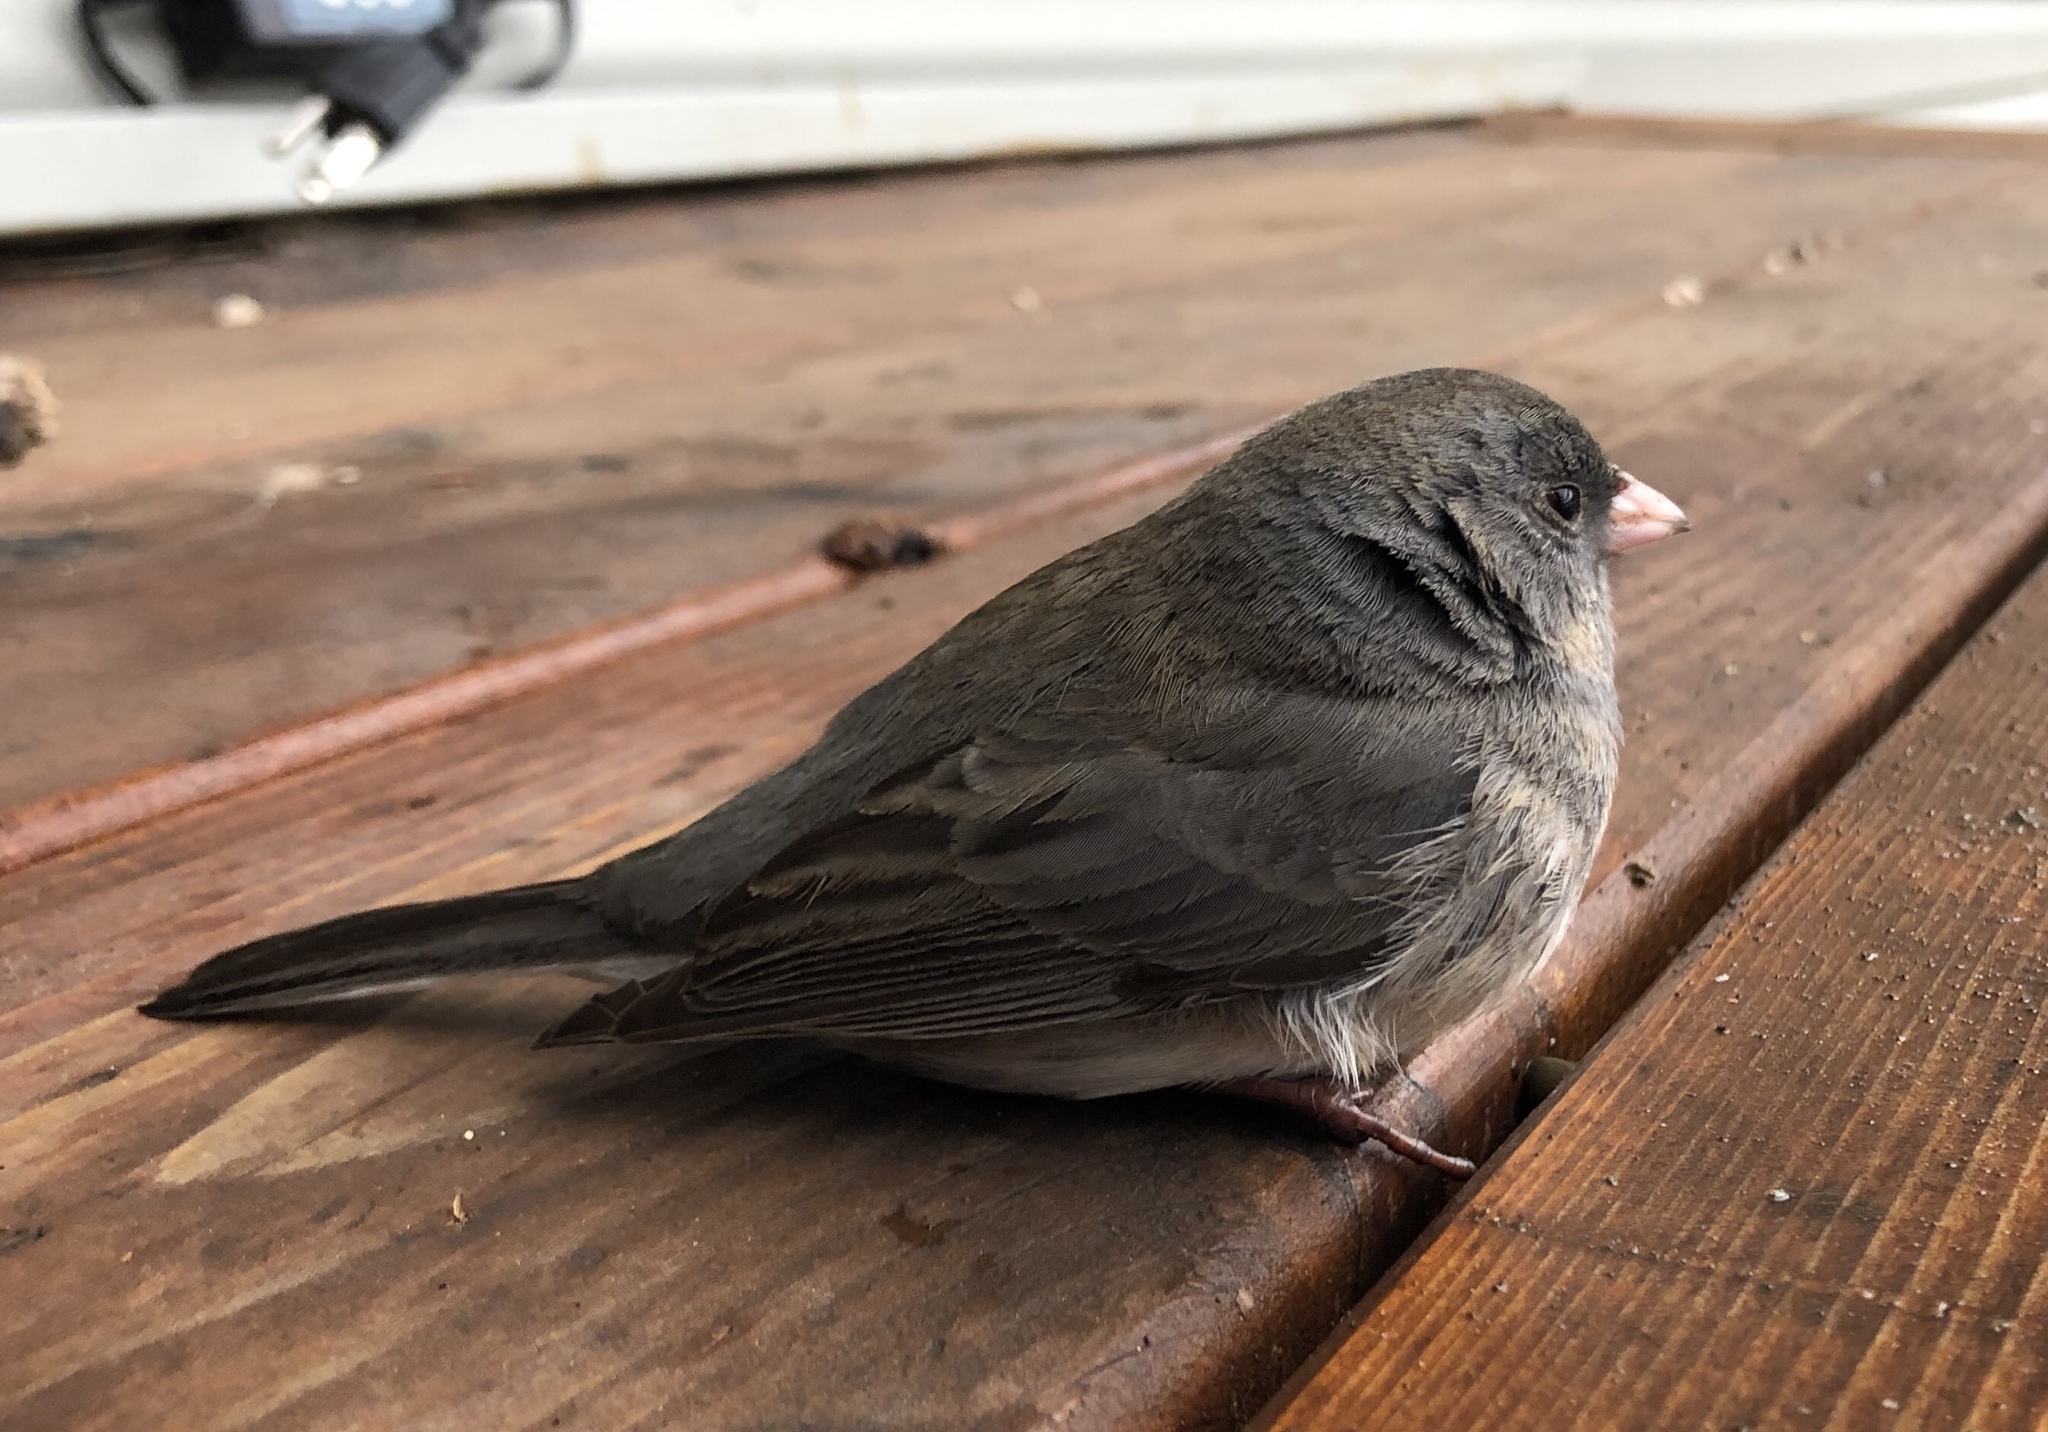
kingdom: Animalia
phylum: Chordata
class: Aves
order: Passeriformes
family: Passerellidae
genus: Junco
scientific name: Junco hyemalis
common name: Dark-eyed junco
